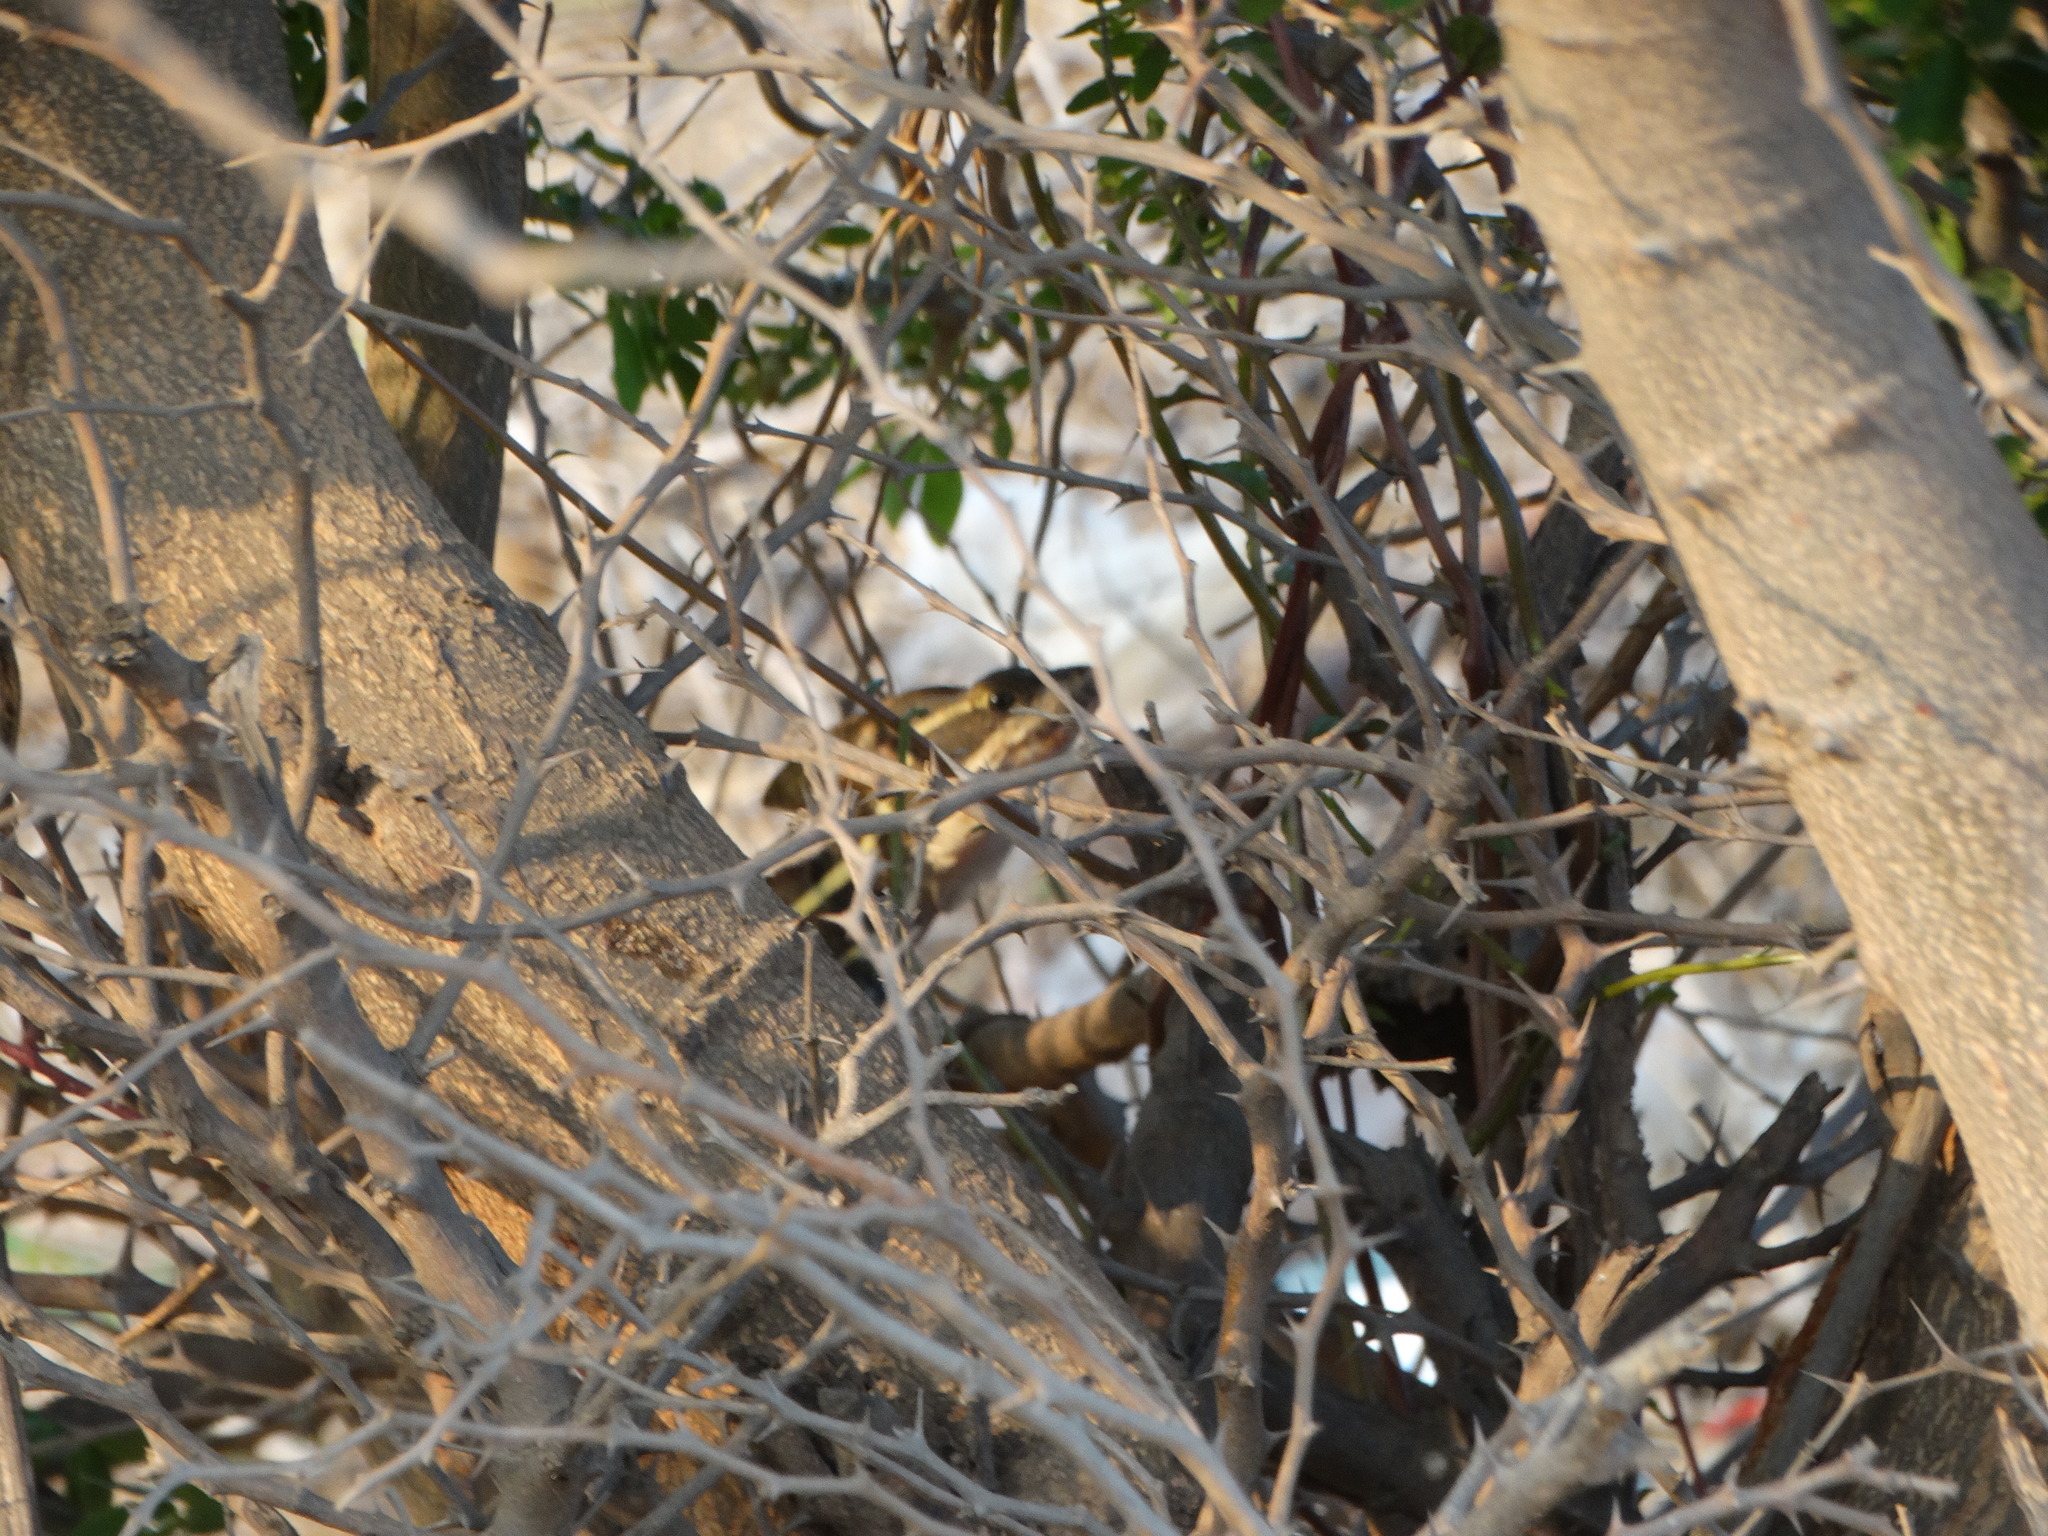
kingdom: Animalia
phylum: Chordata
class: Squamata
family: Corytophanidae
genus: Basiliscus
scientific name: Basiliscus vittatus
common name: Brown basilisk
